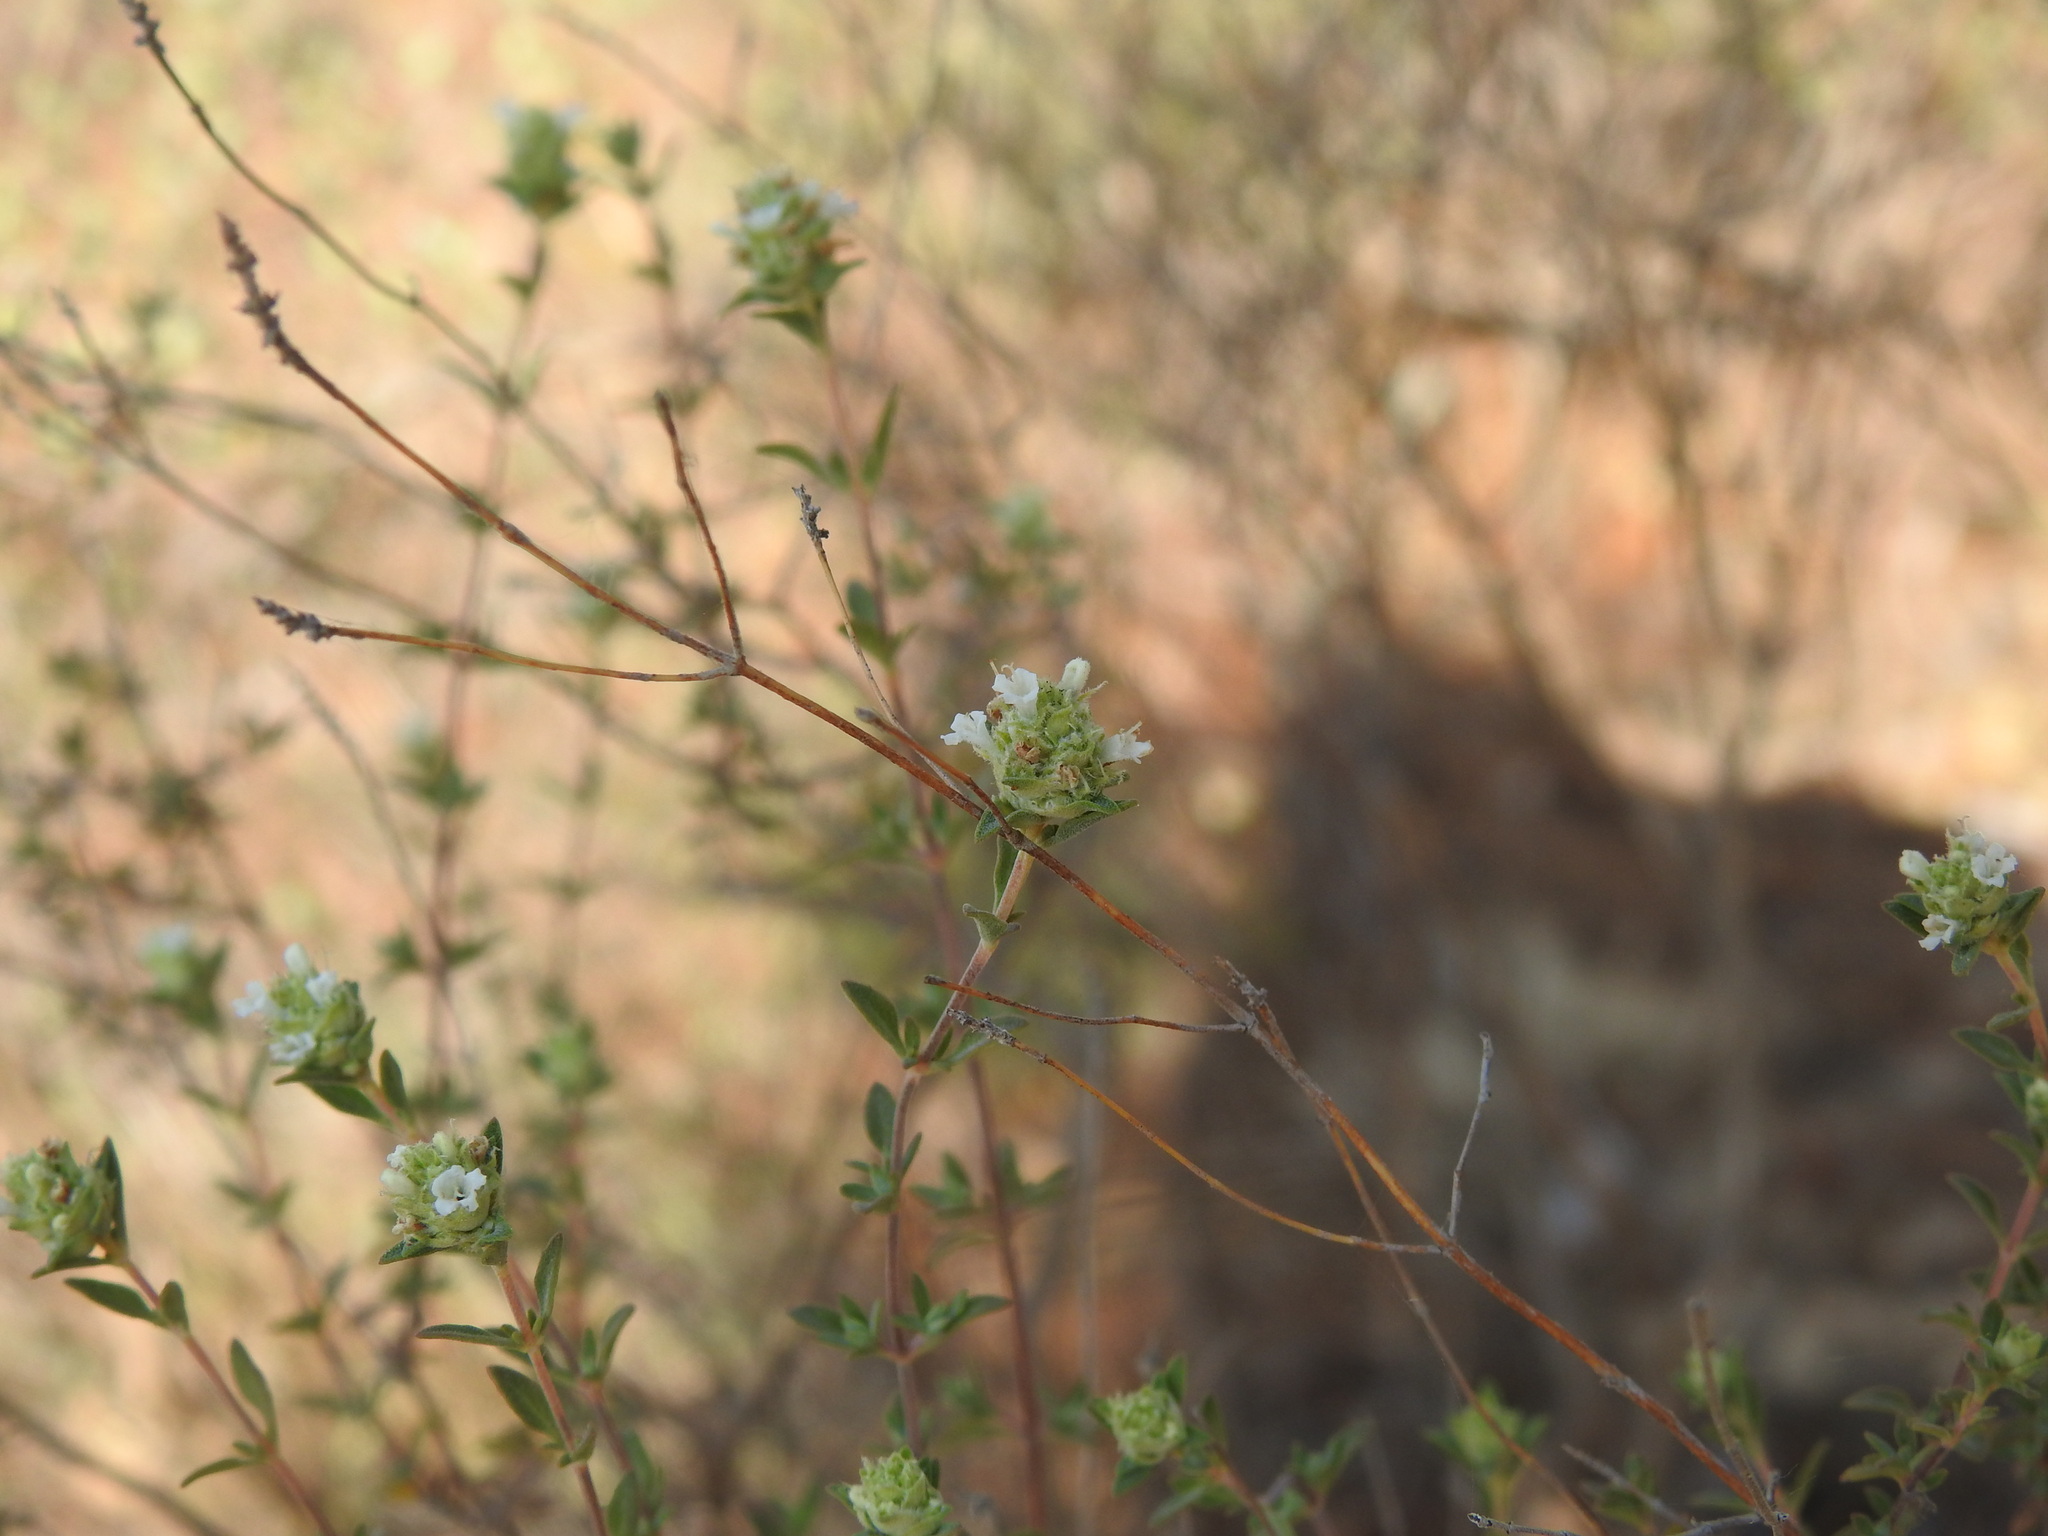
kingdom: Plantae
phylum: Tracheophyta
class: Magnoliopsida
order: Lamiales
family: Lamiaceae
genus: Thymus
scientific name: Thymus albicans
